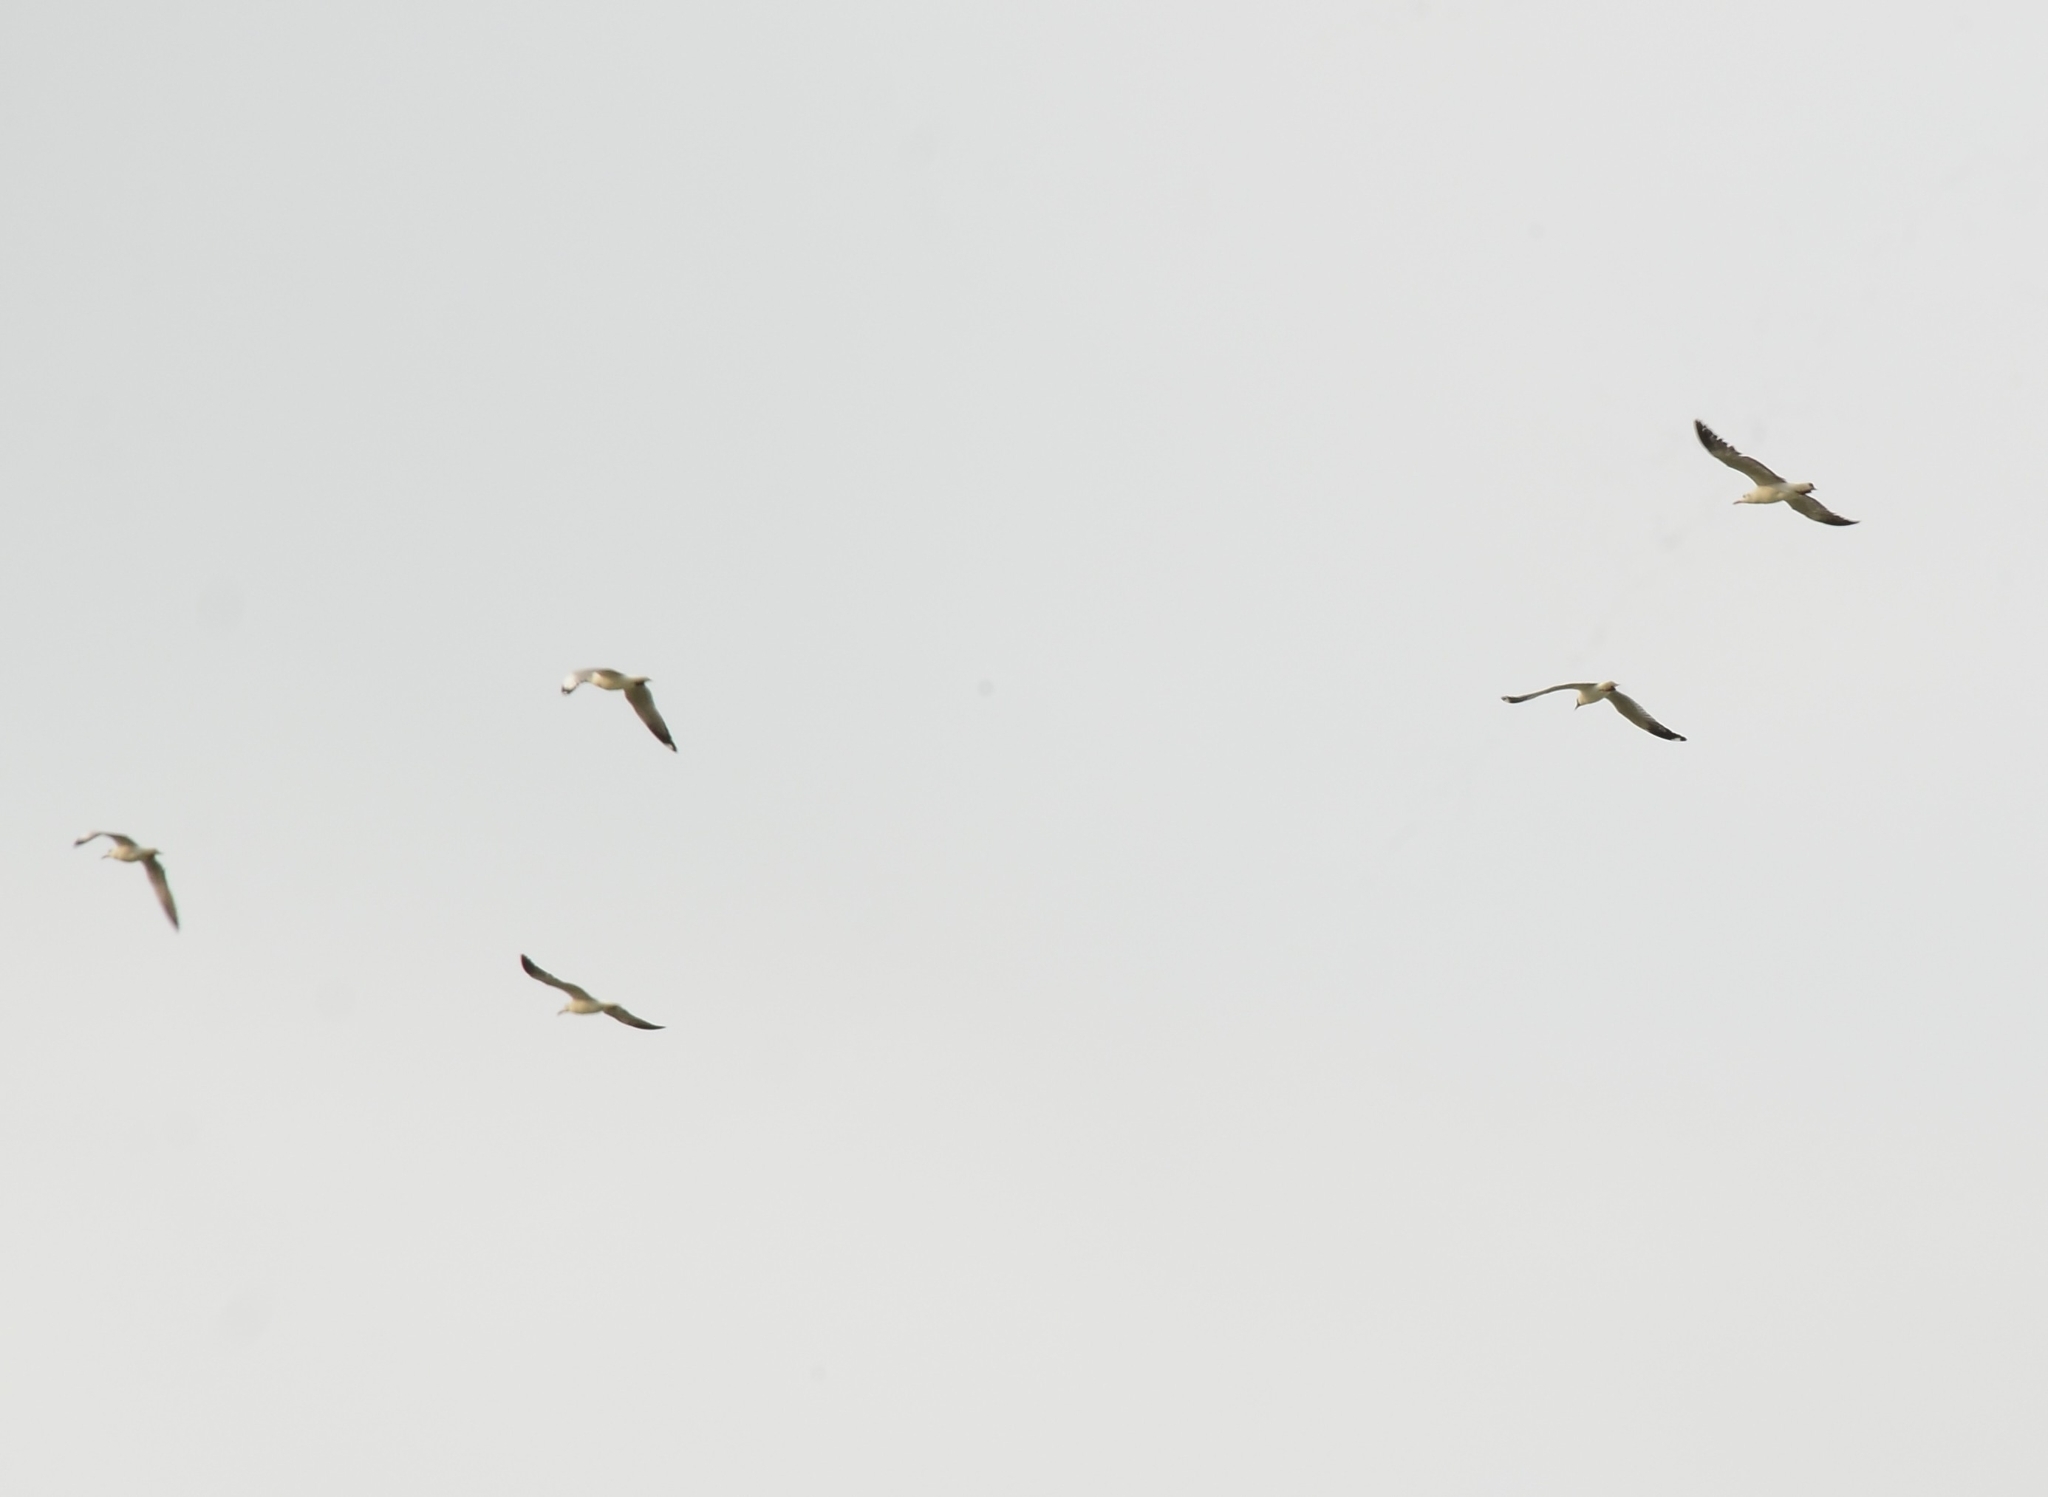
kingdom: Animalia
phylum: Chordata
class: Aves
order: Charadriiformes
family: Laridae
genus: Chroicocephalus
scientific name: Chroicocephalus brunnicephalus
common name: Brown-headed gull
